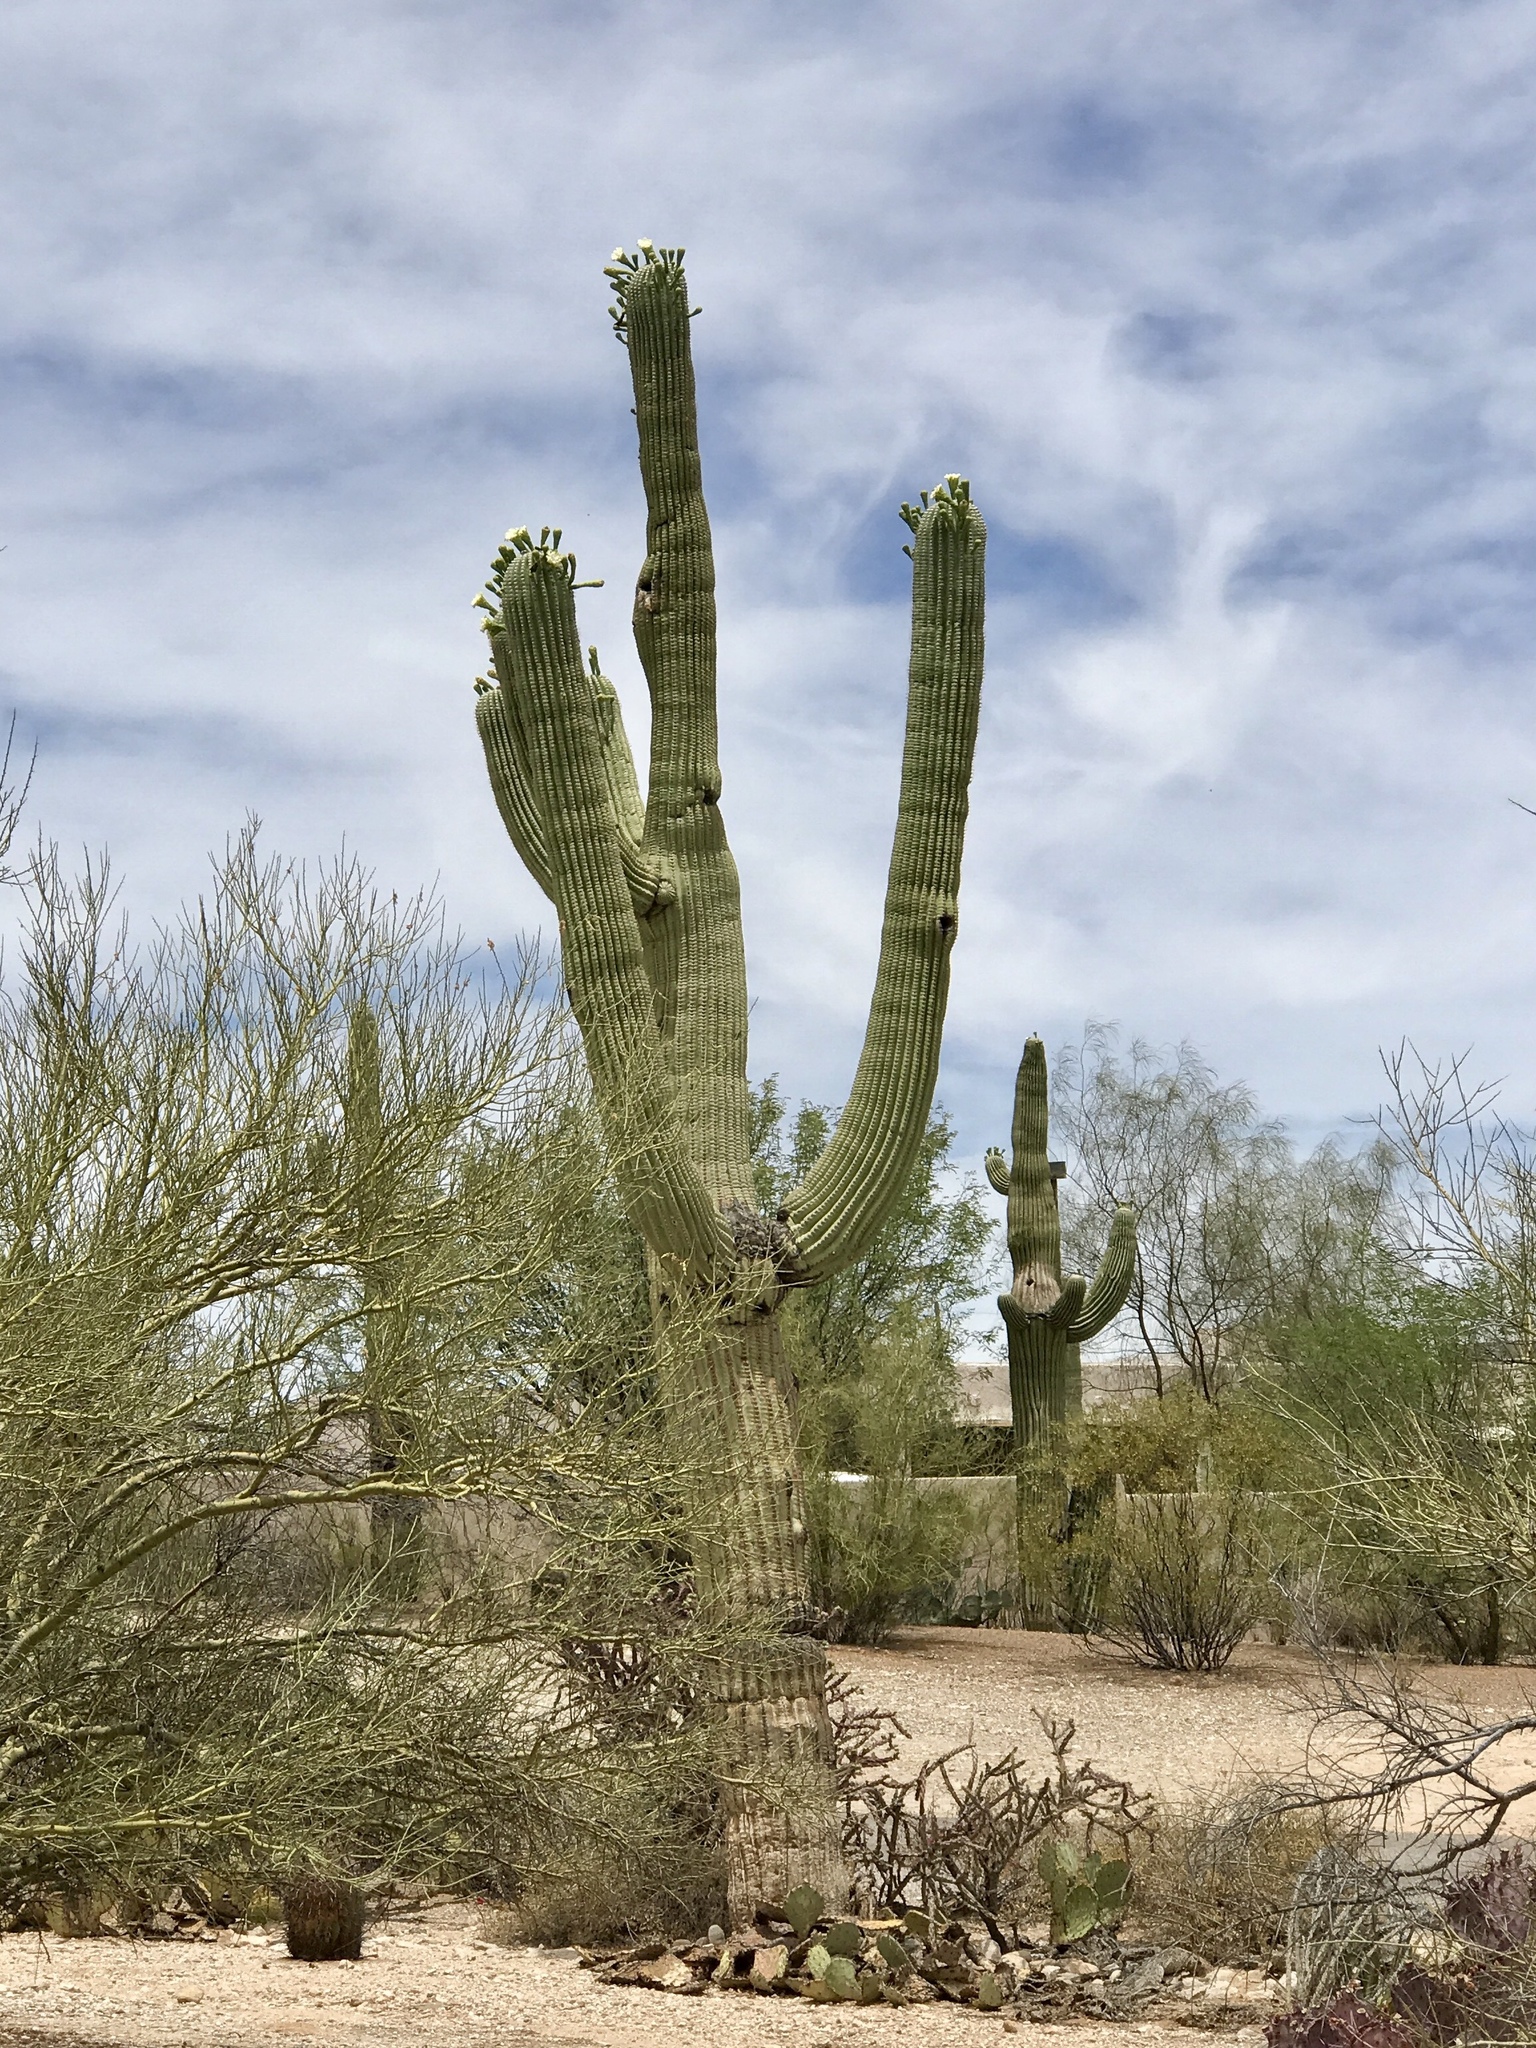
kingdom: Plantae
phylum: Tracheophyta
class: Magnoliopsida
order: Caryophyllales
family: Cactaceae
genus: Carnegiea
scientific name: Carnegiea gigantea
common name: Saguaro
